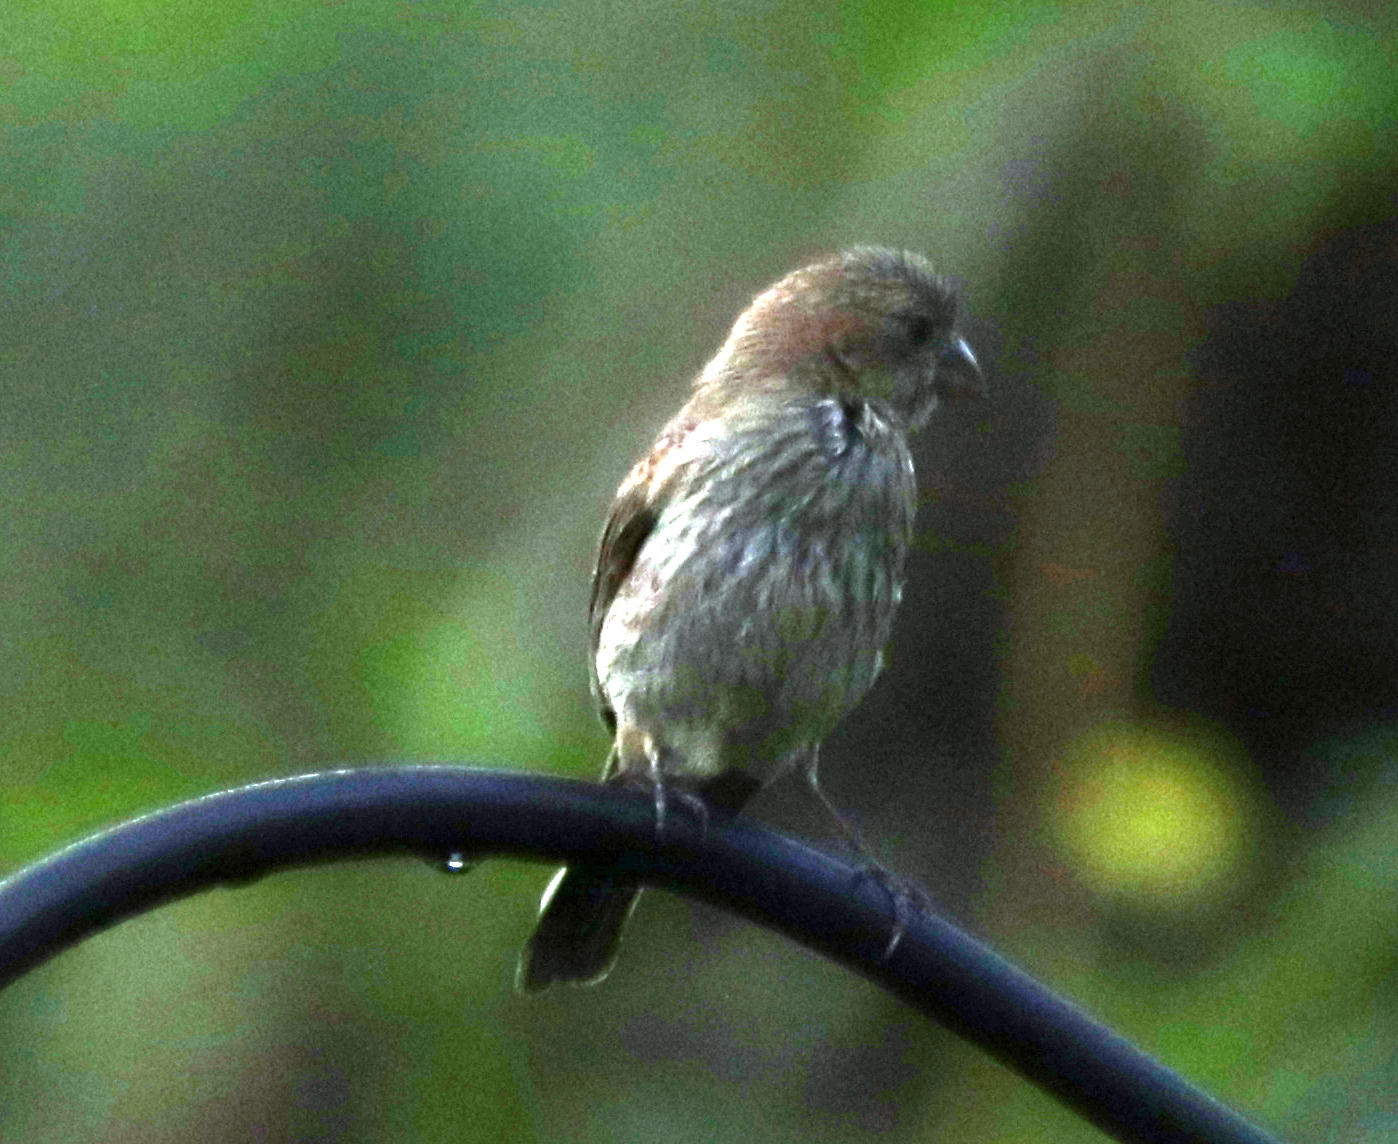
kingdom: Animalia
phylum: Chordata
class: Aves
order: Passeriformes
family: Fringillidae
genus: Haemorhous
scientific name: Haemorhous mexicanus
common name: House finch
